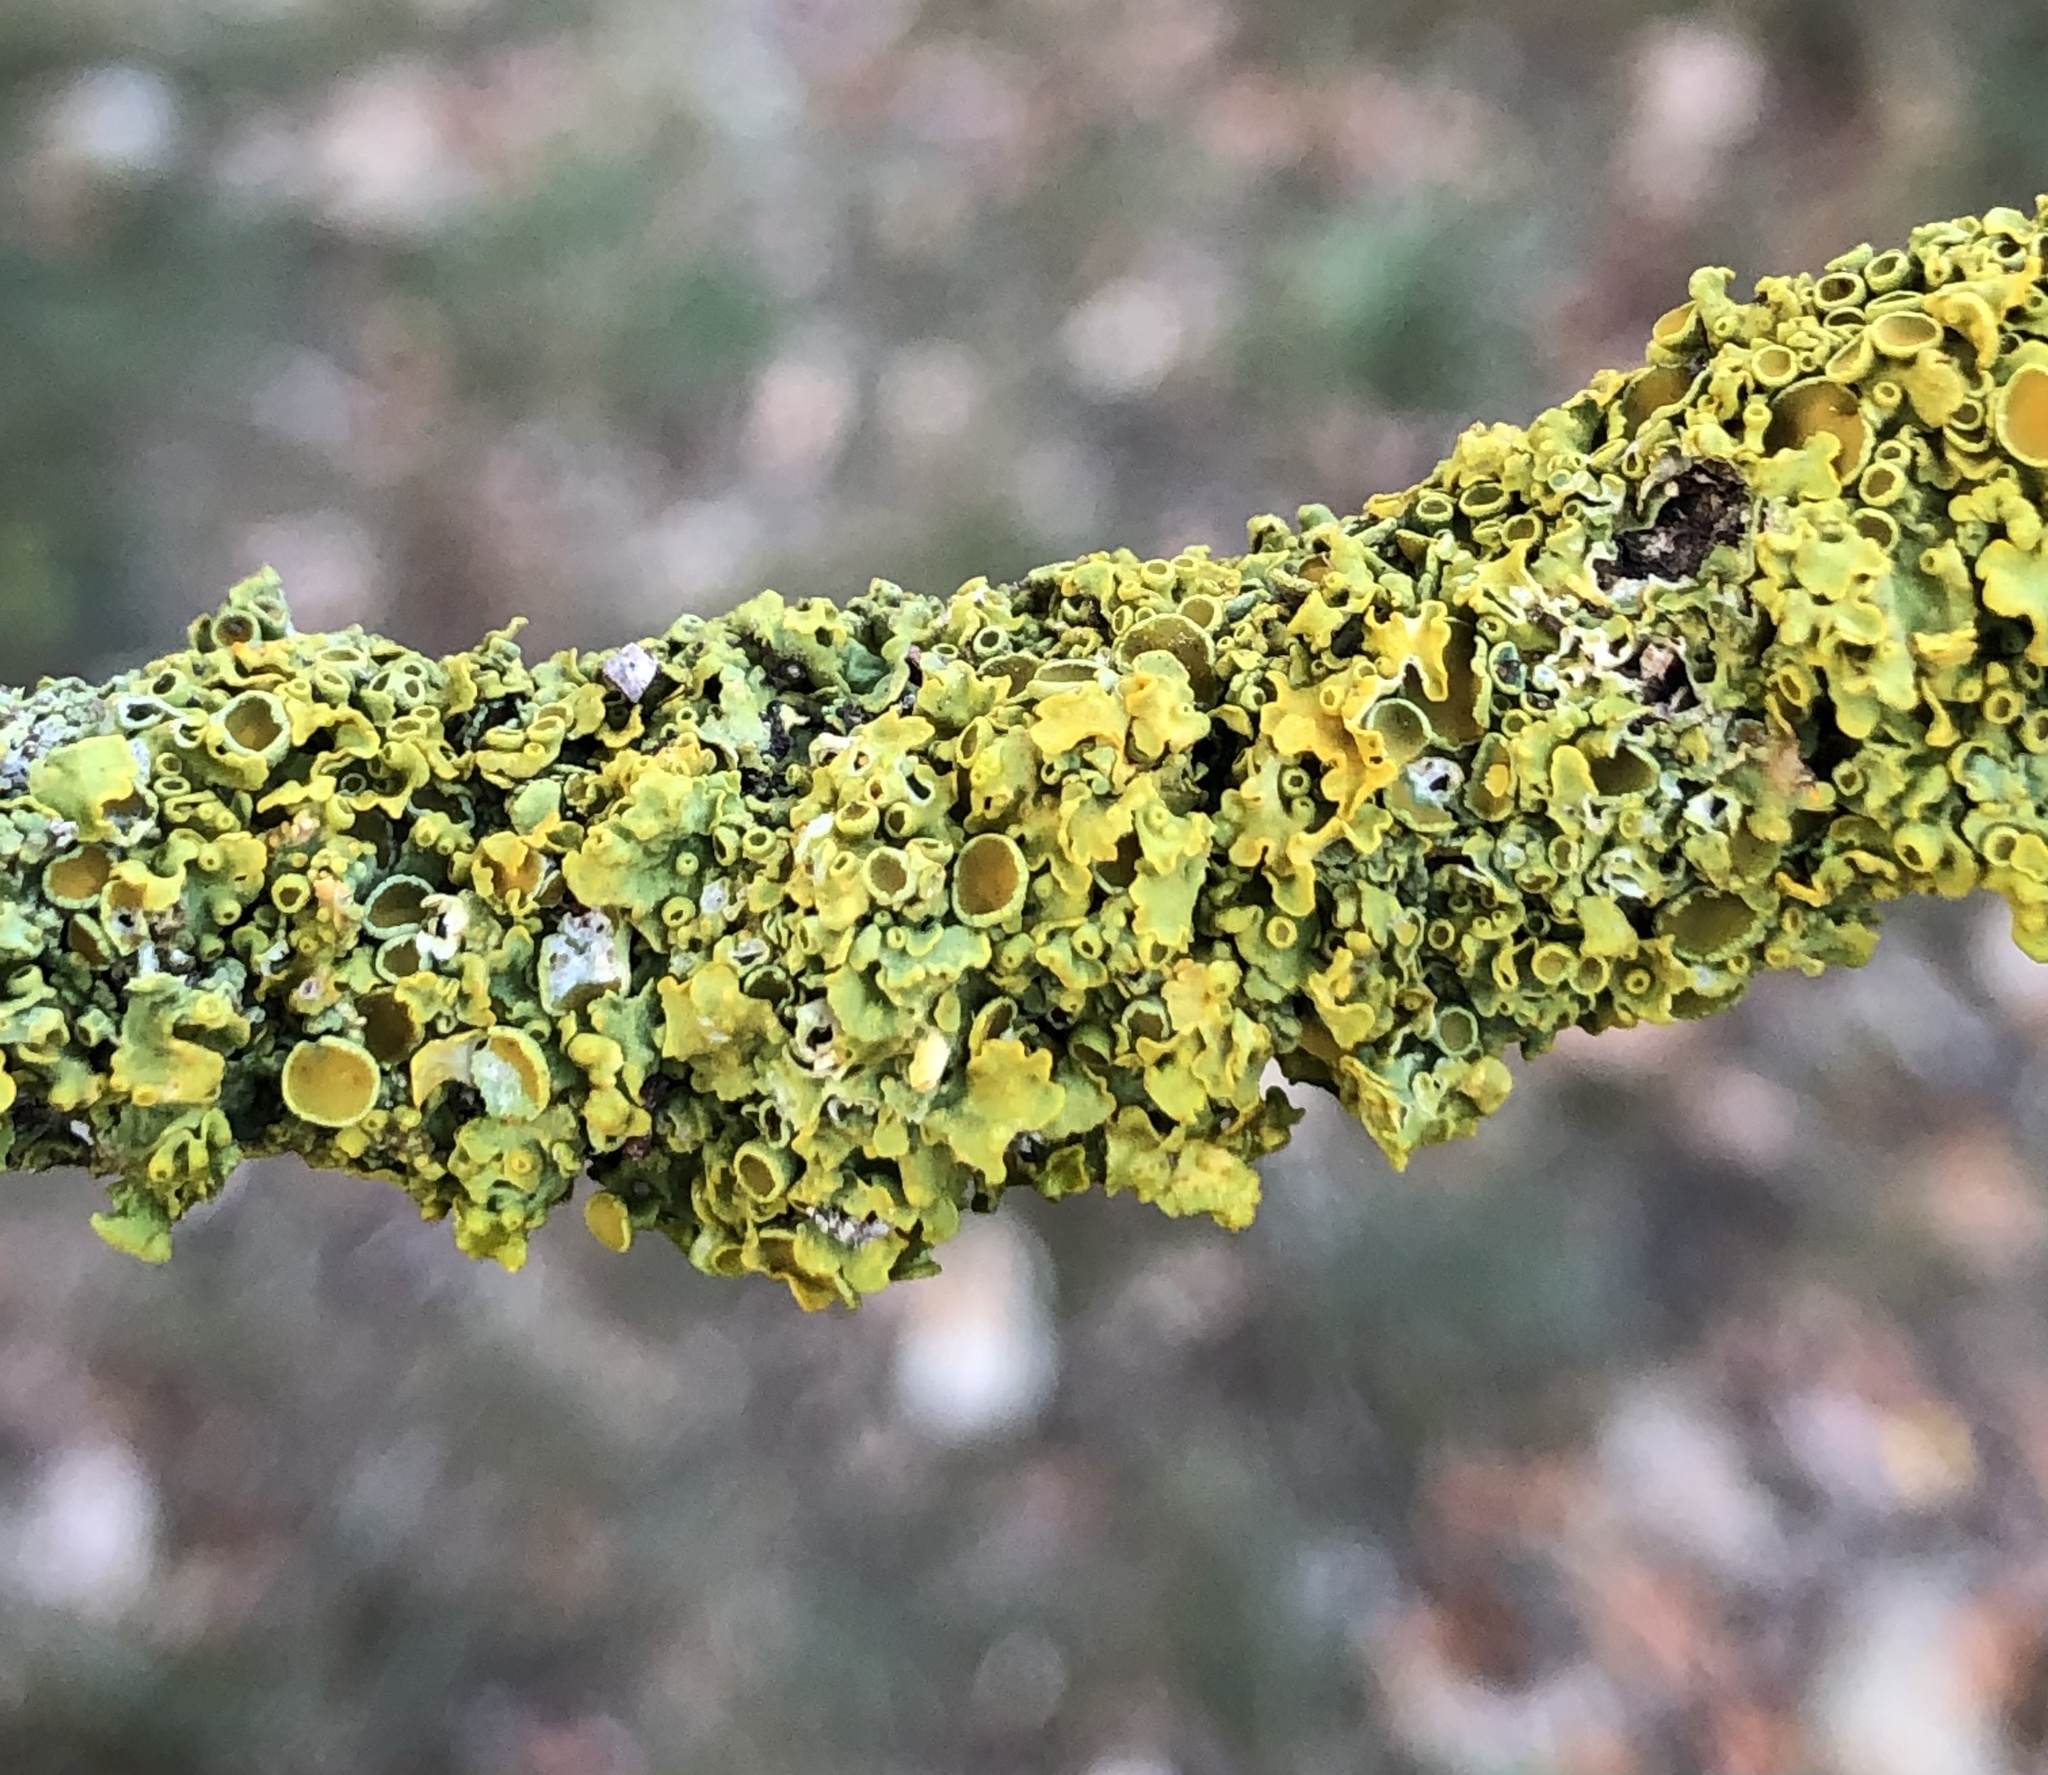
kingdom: Fungi
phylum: Ascomycota
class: Lecanoromycetes
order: Teloschistales
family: Teloschistaceae
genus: Xanthoria
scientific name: Xanthoria parietina
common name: Common orange lichen
